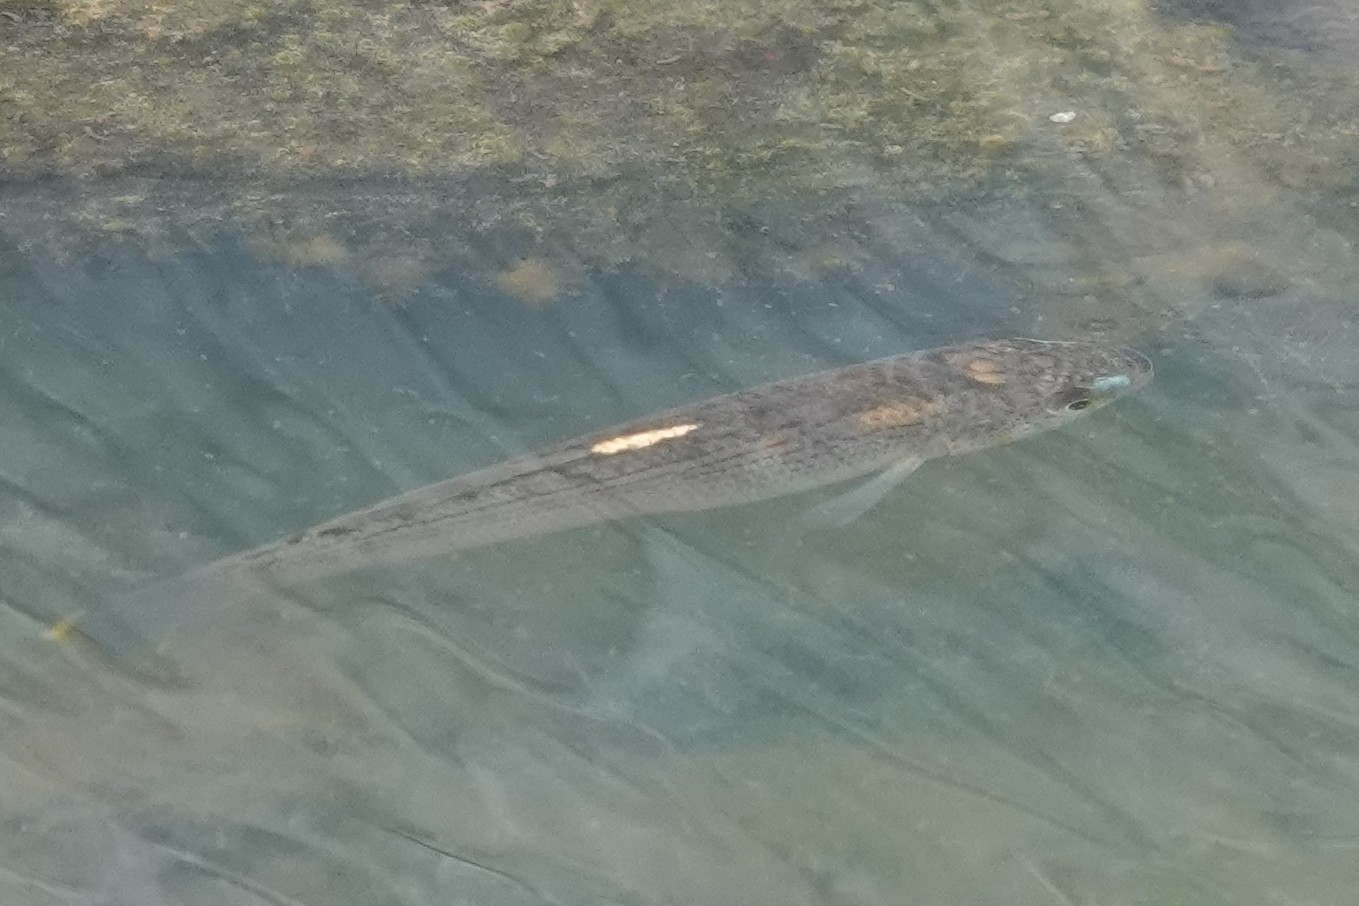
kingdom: Animalia
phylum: Chordata
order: Cyprinodontiformes
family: Fundulidae
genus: Fundulus
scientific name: Fundulus catenatus
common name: Northern studfish
